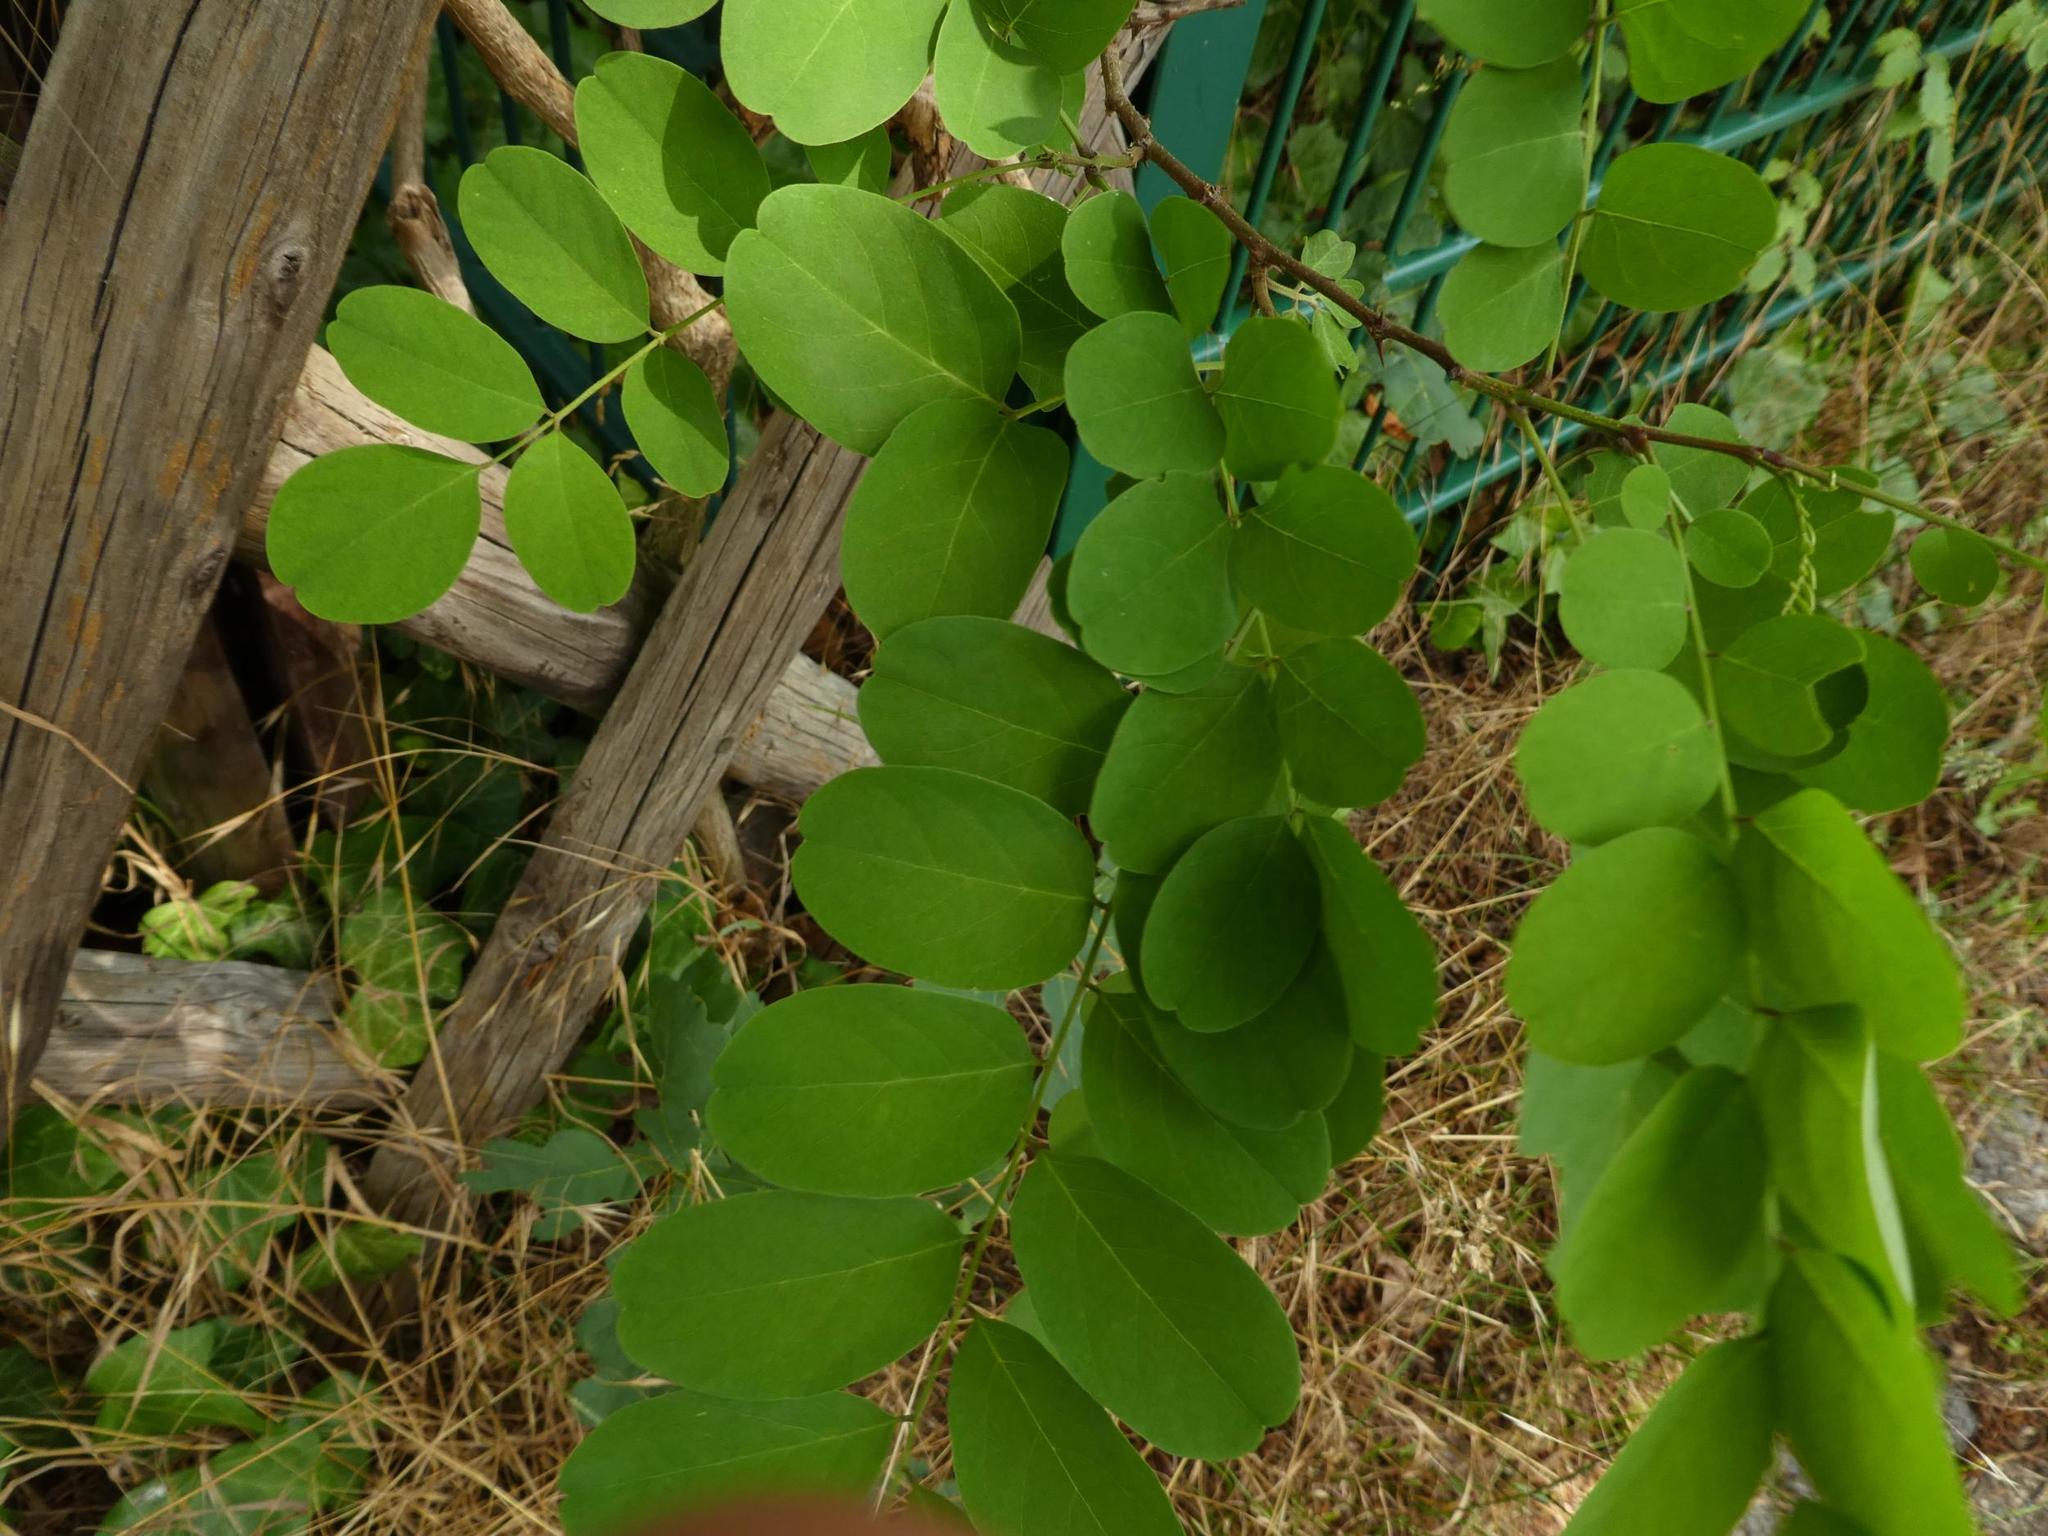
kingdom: Plantae
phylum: Tracheophyta
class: Magnoliopsida
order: Fabales
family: Fabaceae
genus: Robinia
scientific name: Robinia pseudoacacia
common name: Black locust
